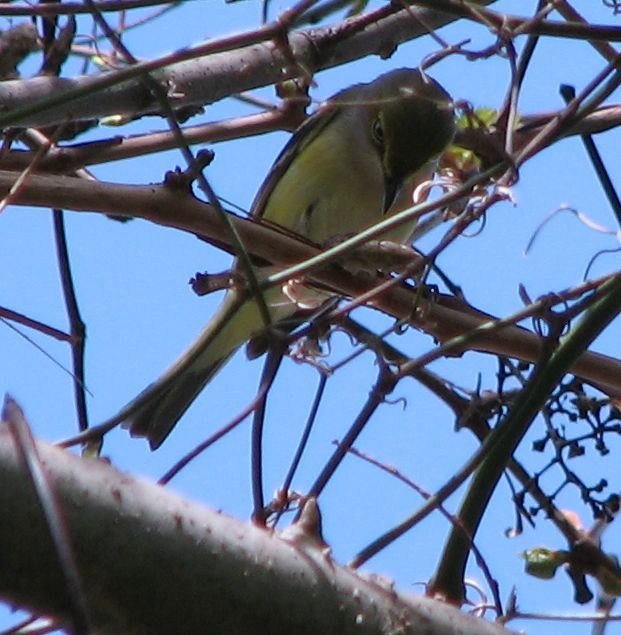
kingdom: Animalia
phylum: Chordata
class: Aves
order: Passeriformes
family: Vireonidae
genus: Vireo
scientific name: Vireo griseus
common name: White-eyed vireo
